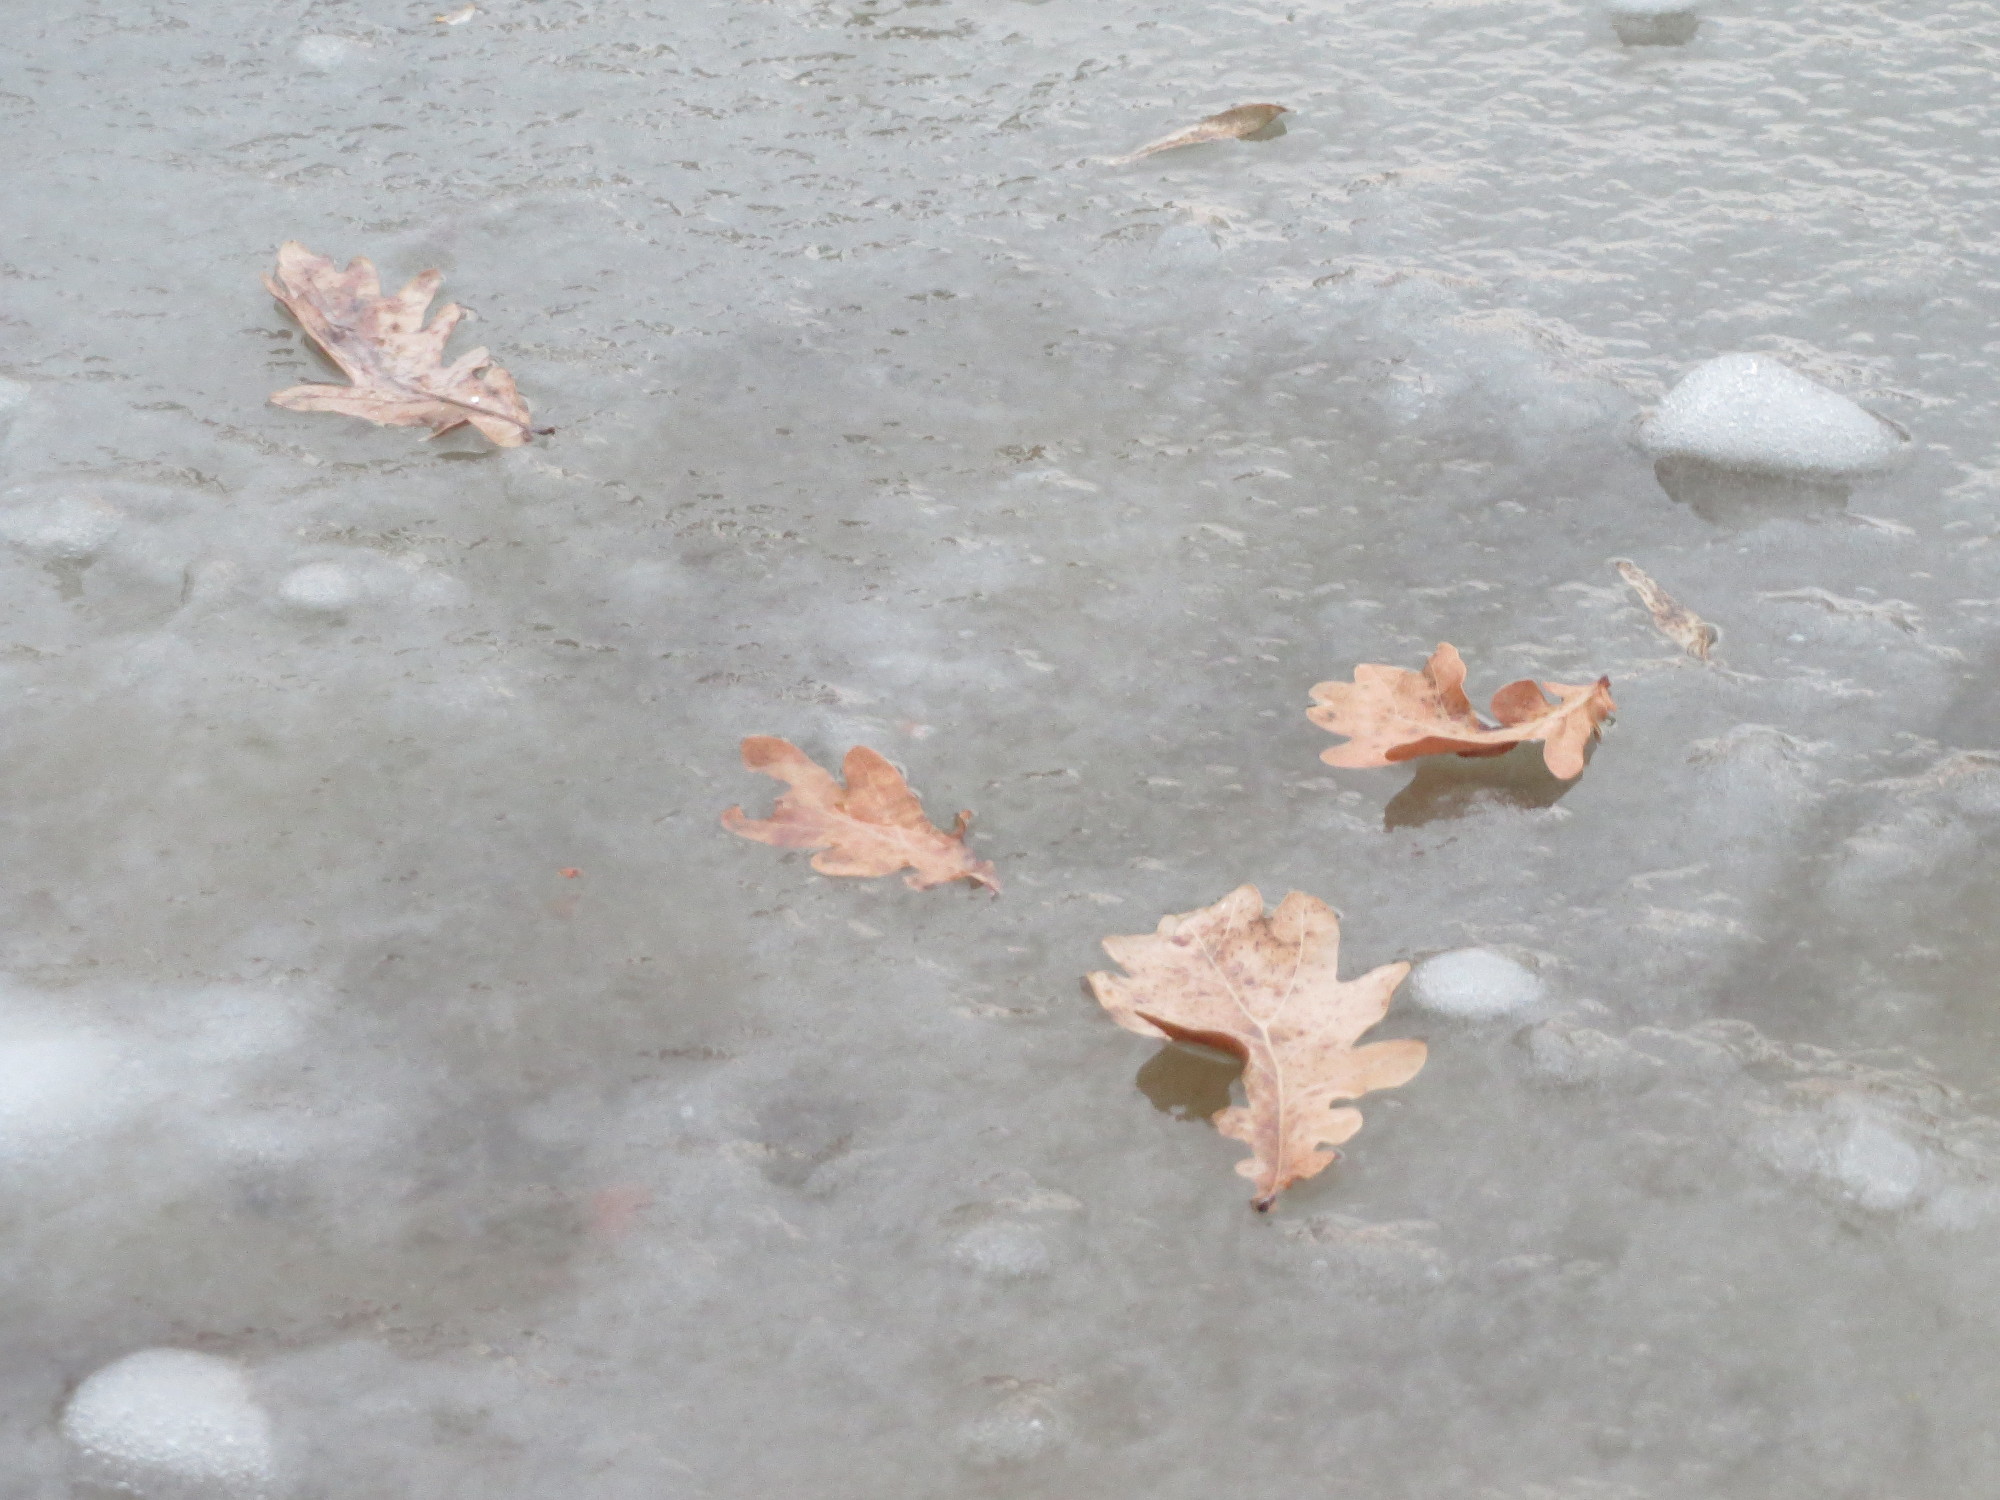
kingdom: Plantae
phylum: Tracheophyta
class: Magnoliopsida
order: Fagales
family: Fagaceae
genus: Quercus
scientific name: Quercus robur
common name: Pedunculate oak
